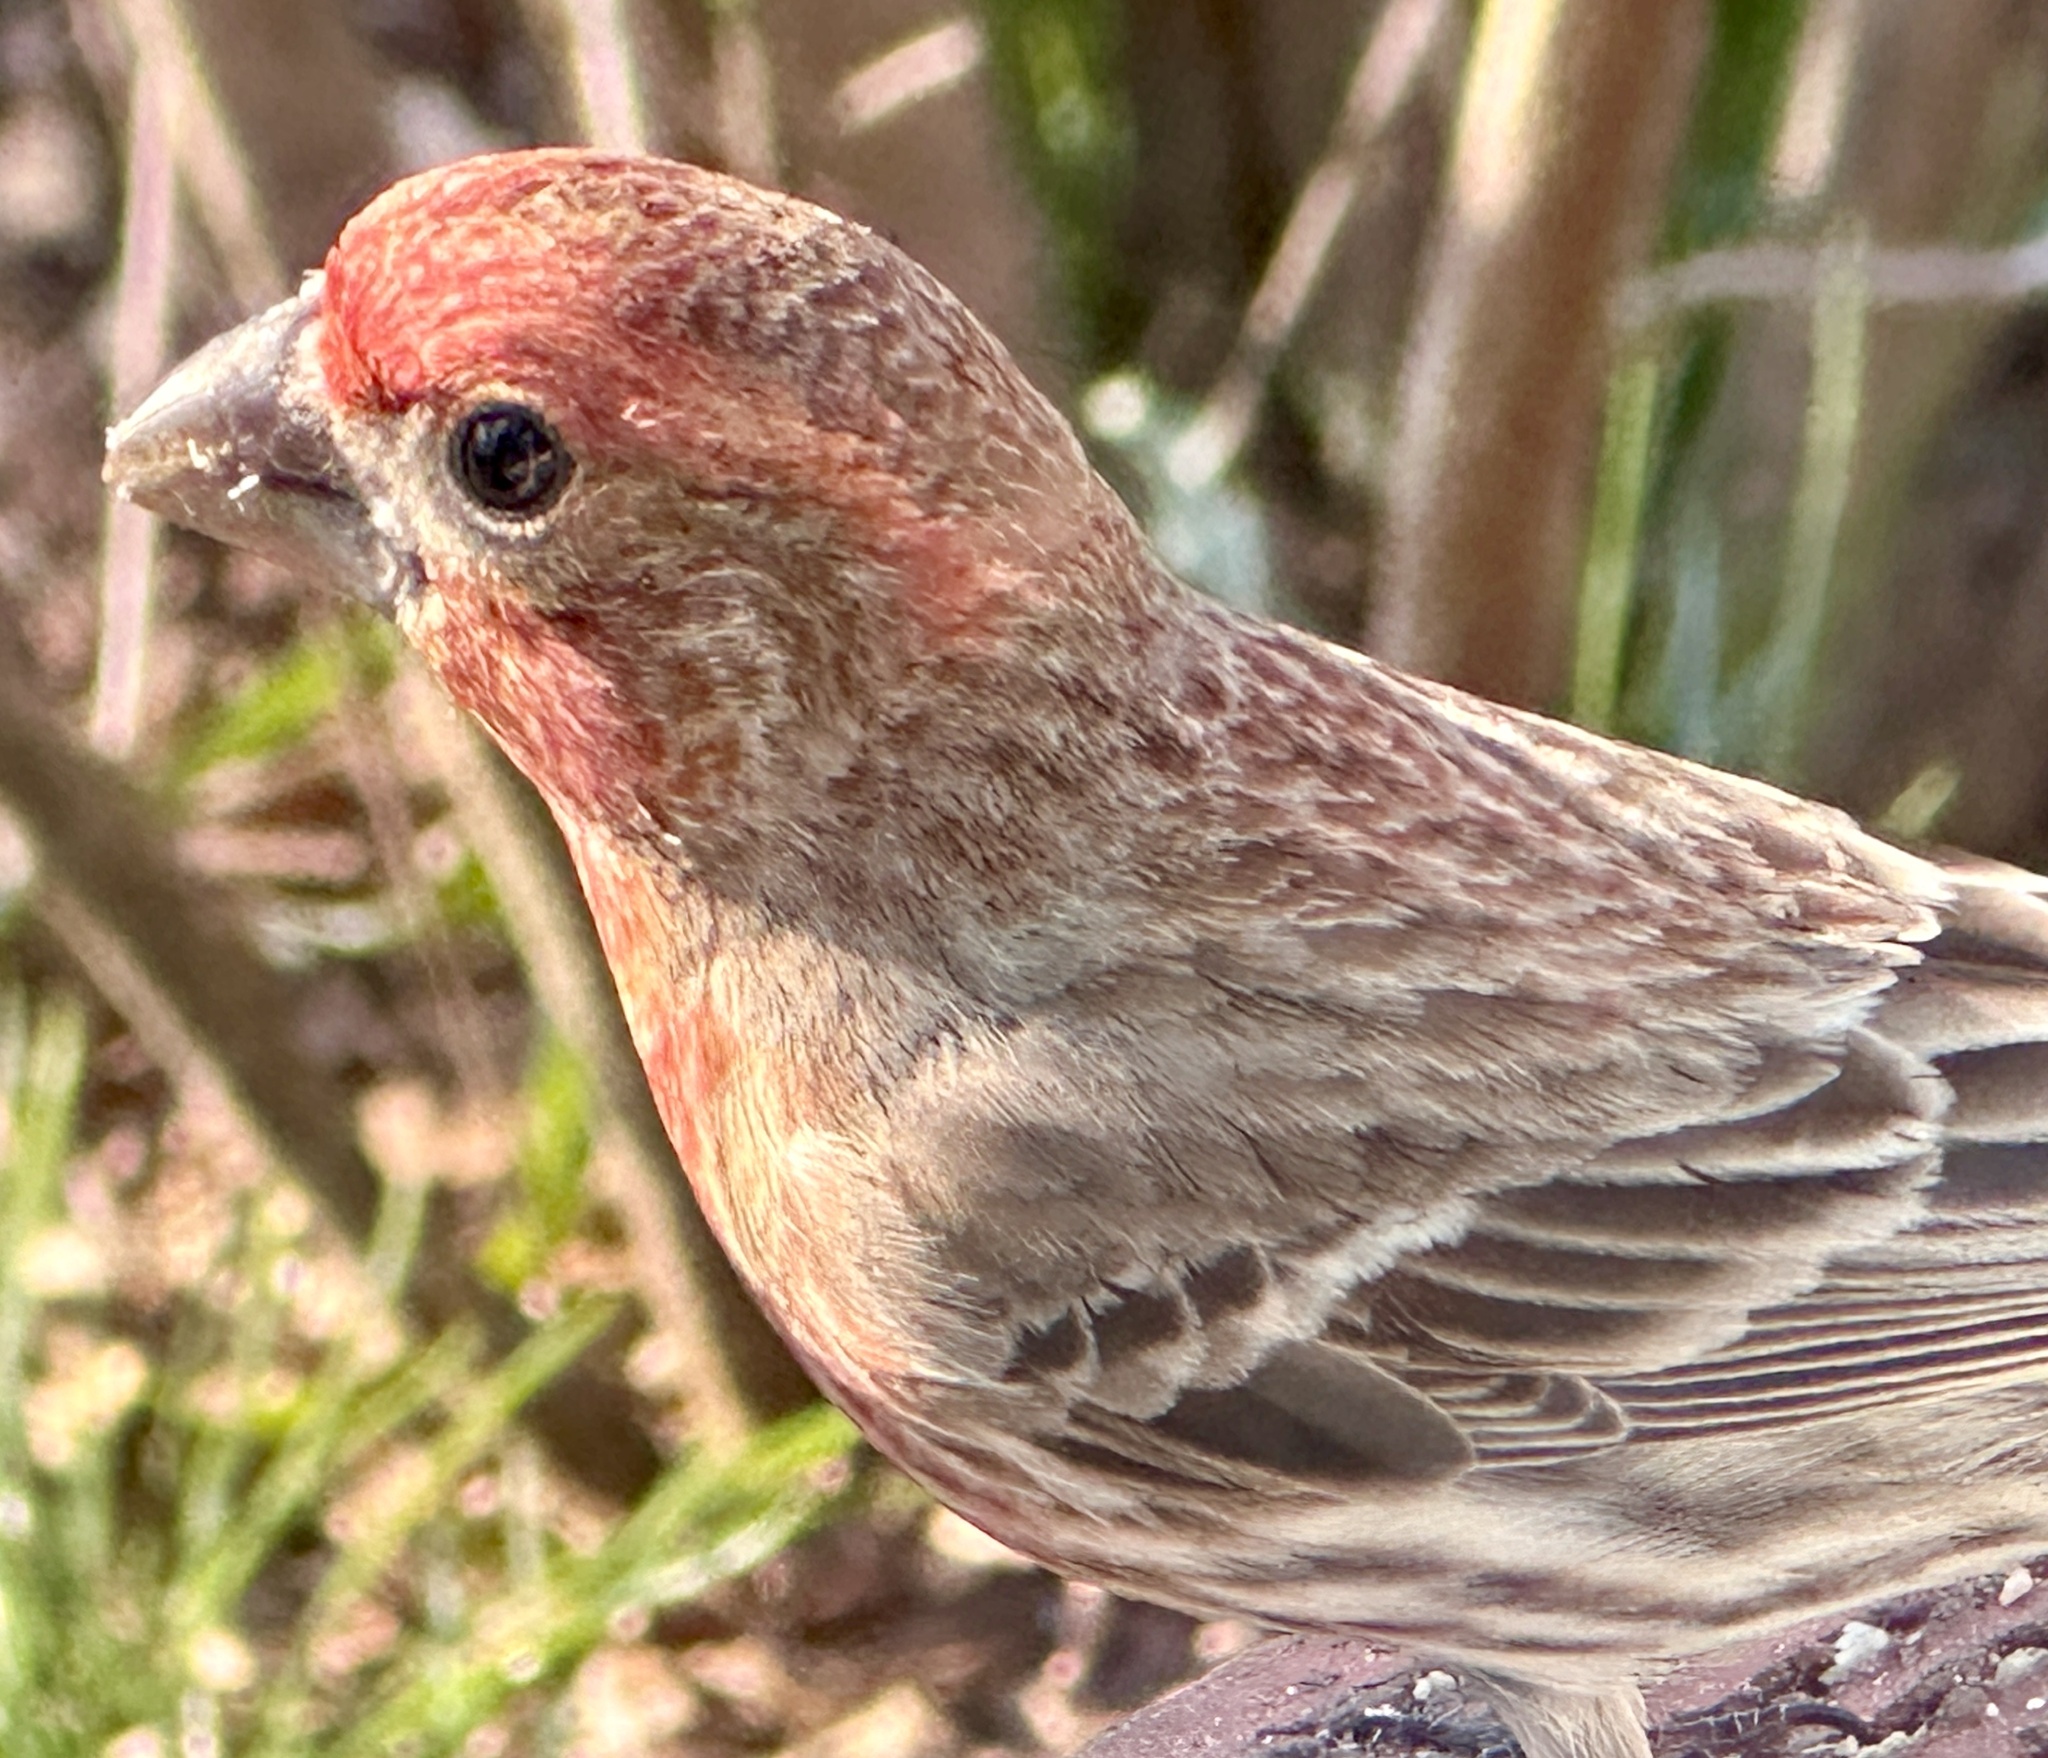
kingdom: Animalia
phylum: Chordata
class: Aves
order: Passeriformes
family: Fringillidae
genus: Haemorhous
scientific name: Haemorhous mexicanus
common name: House finch
